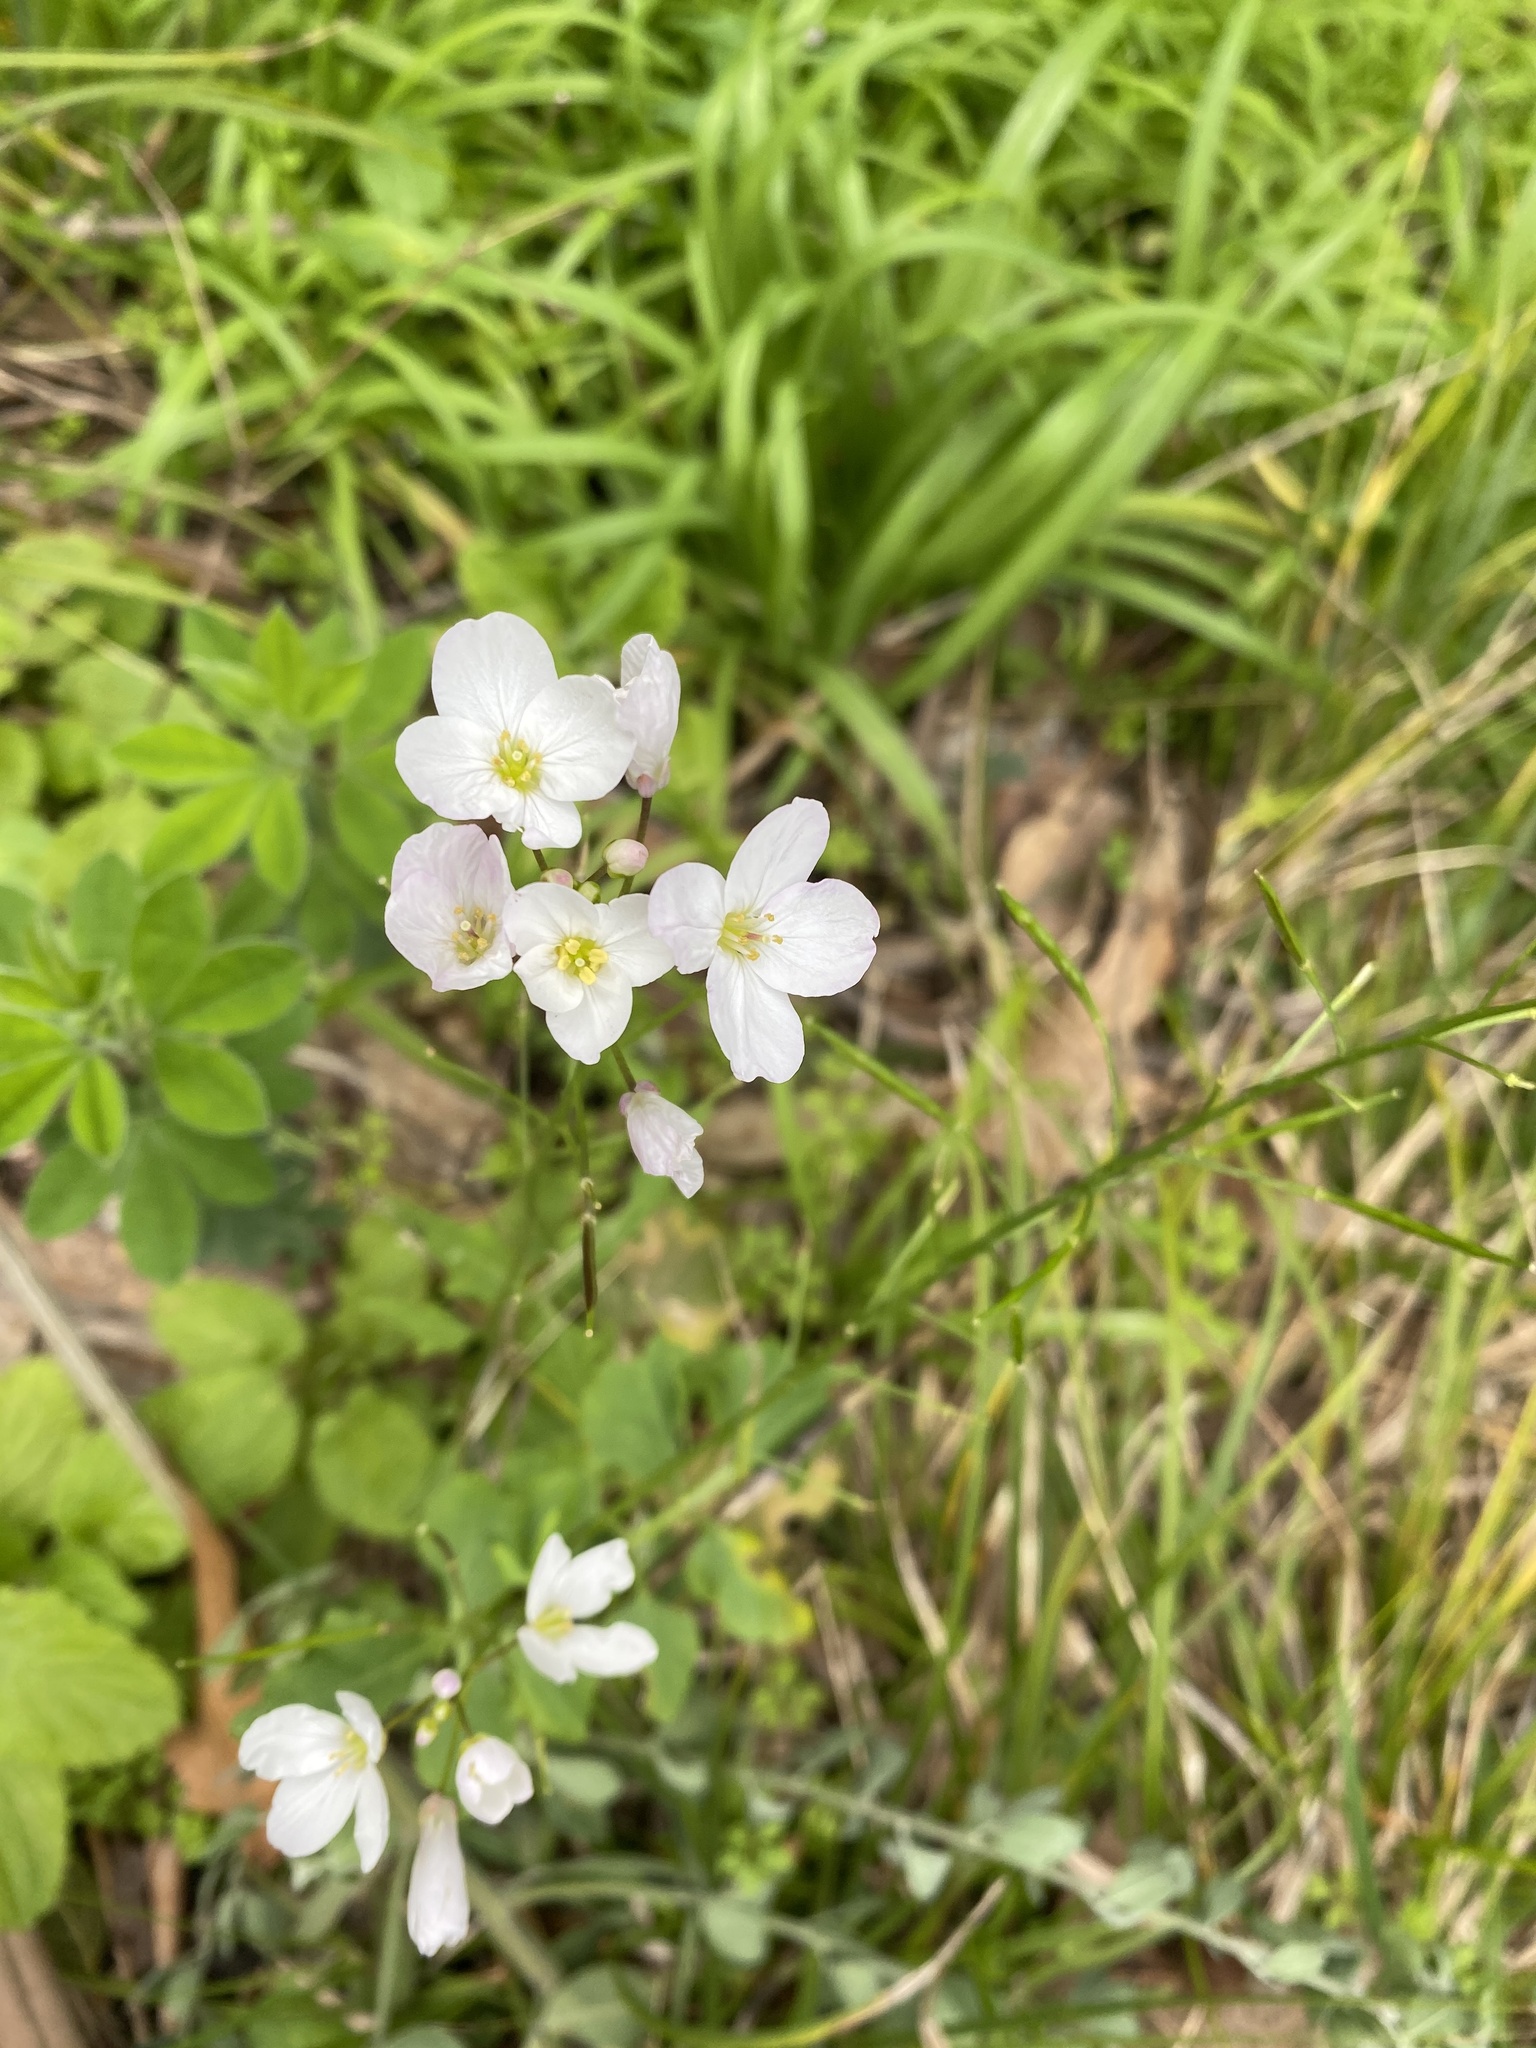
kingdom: Plantae
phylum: Tracheophyta
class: Magnoliopsida
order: Brassicales
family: Brassicaceae
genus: Cardamine
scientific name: Cardamine californica
